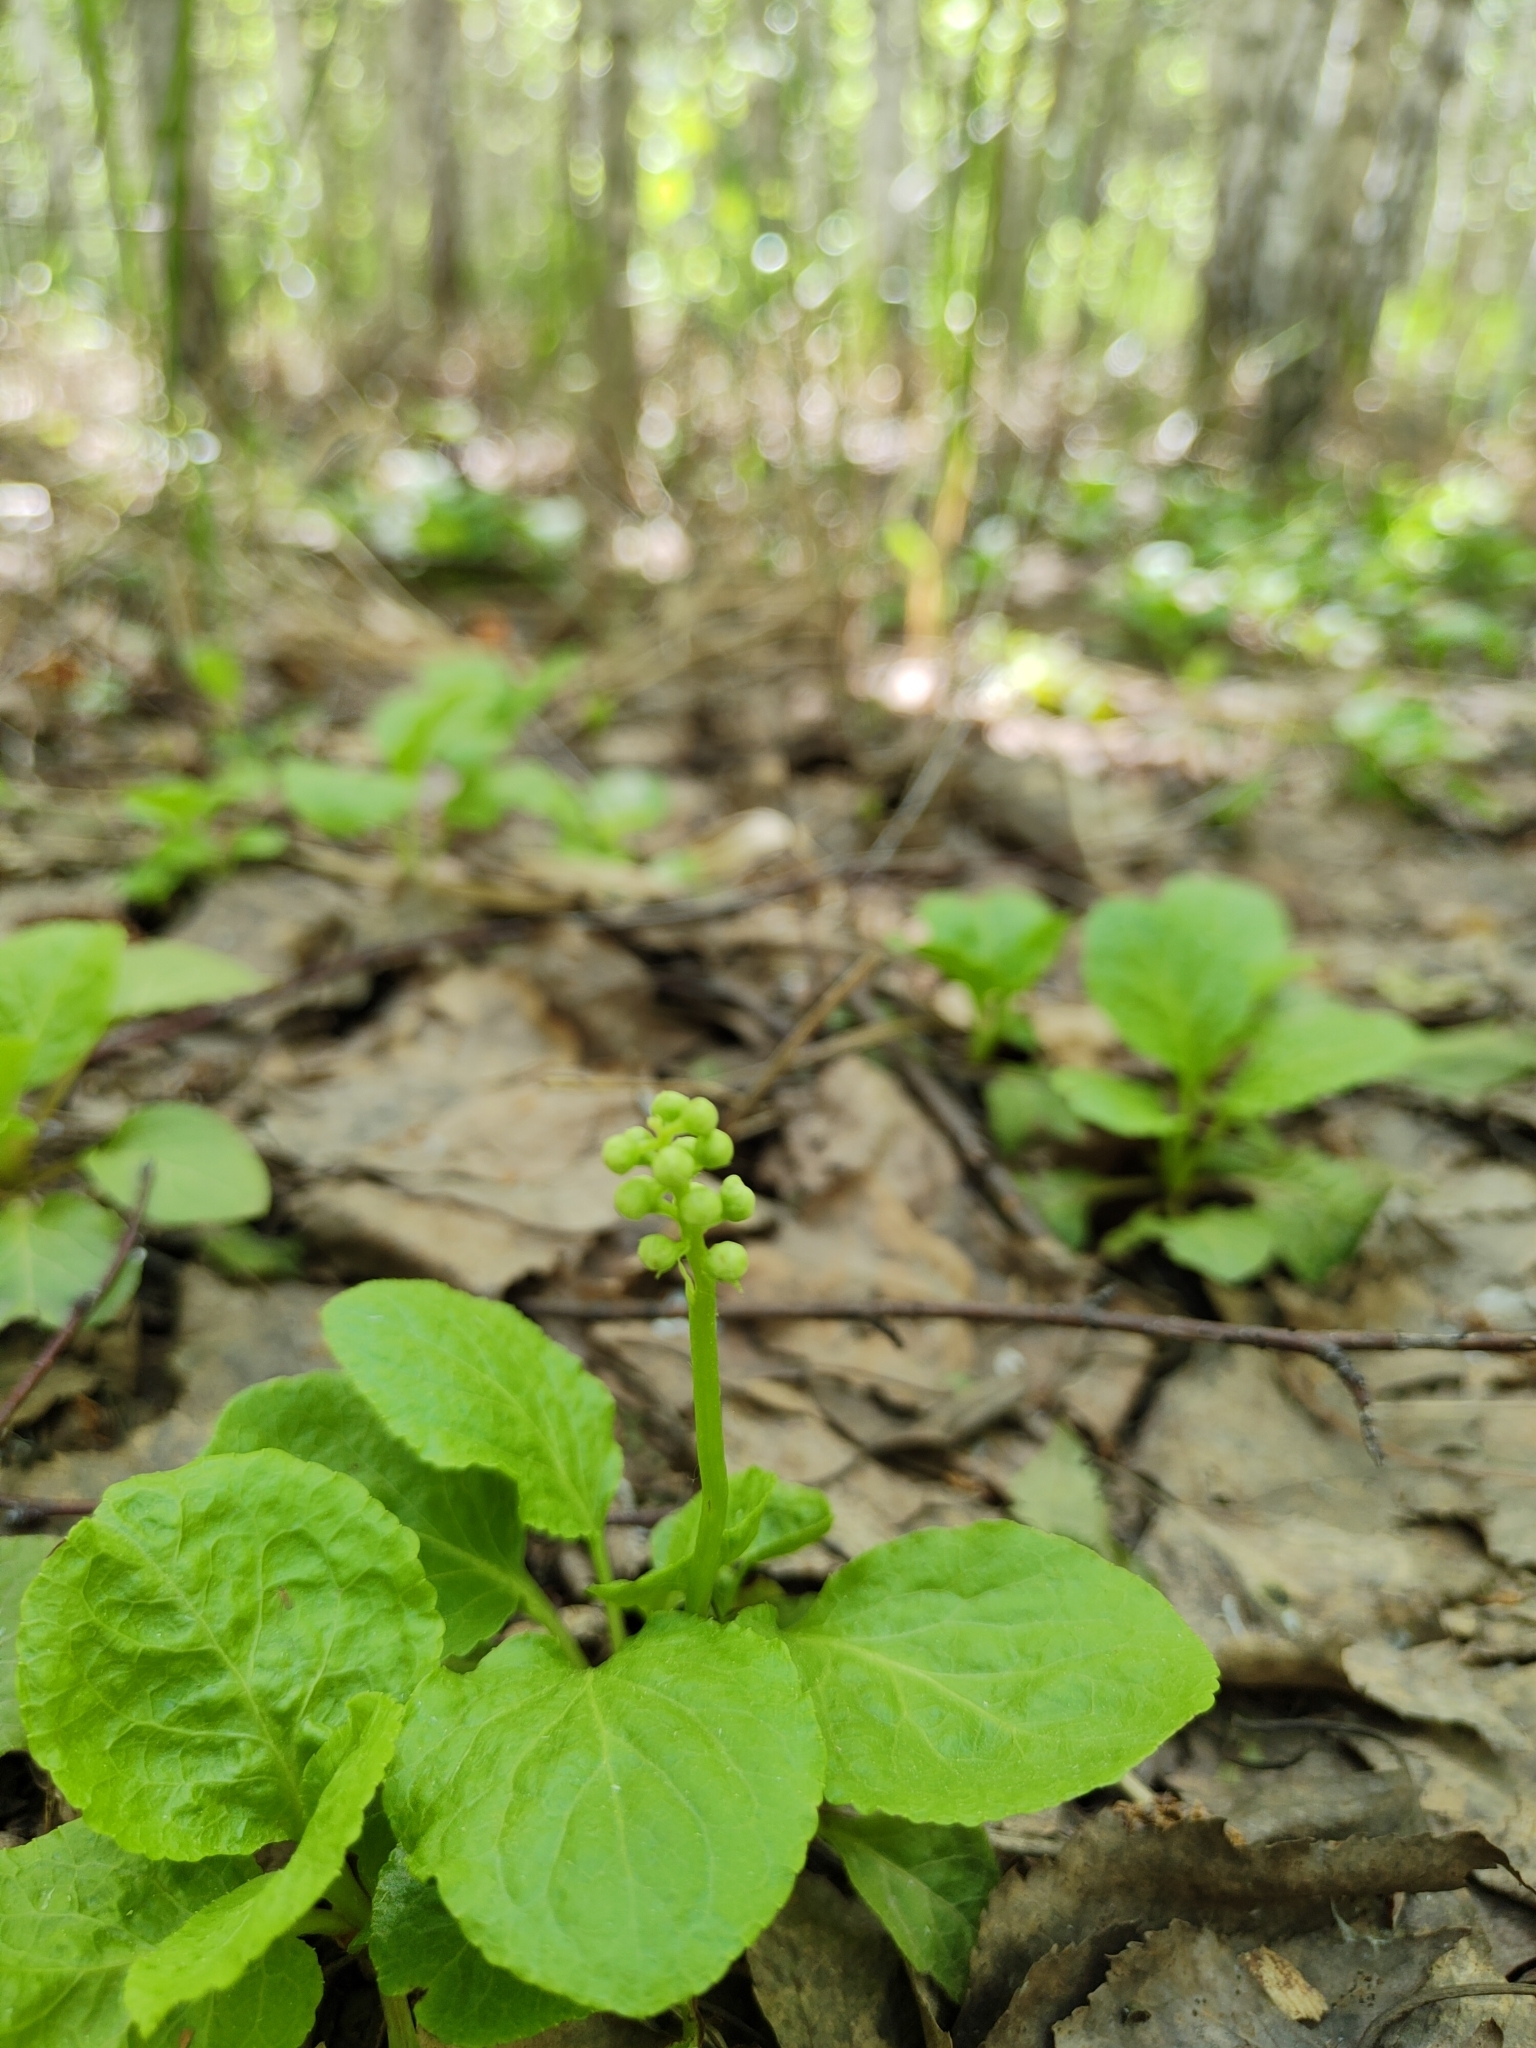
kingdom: Plantae
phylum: Tracheophyta
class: Magnoliopsida
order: Ericales
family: Ericaceae
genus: Pyrola
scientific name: Pyrola minor
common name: Common wintergreen
